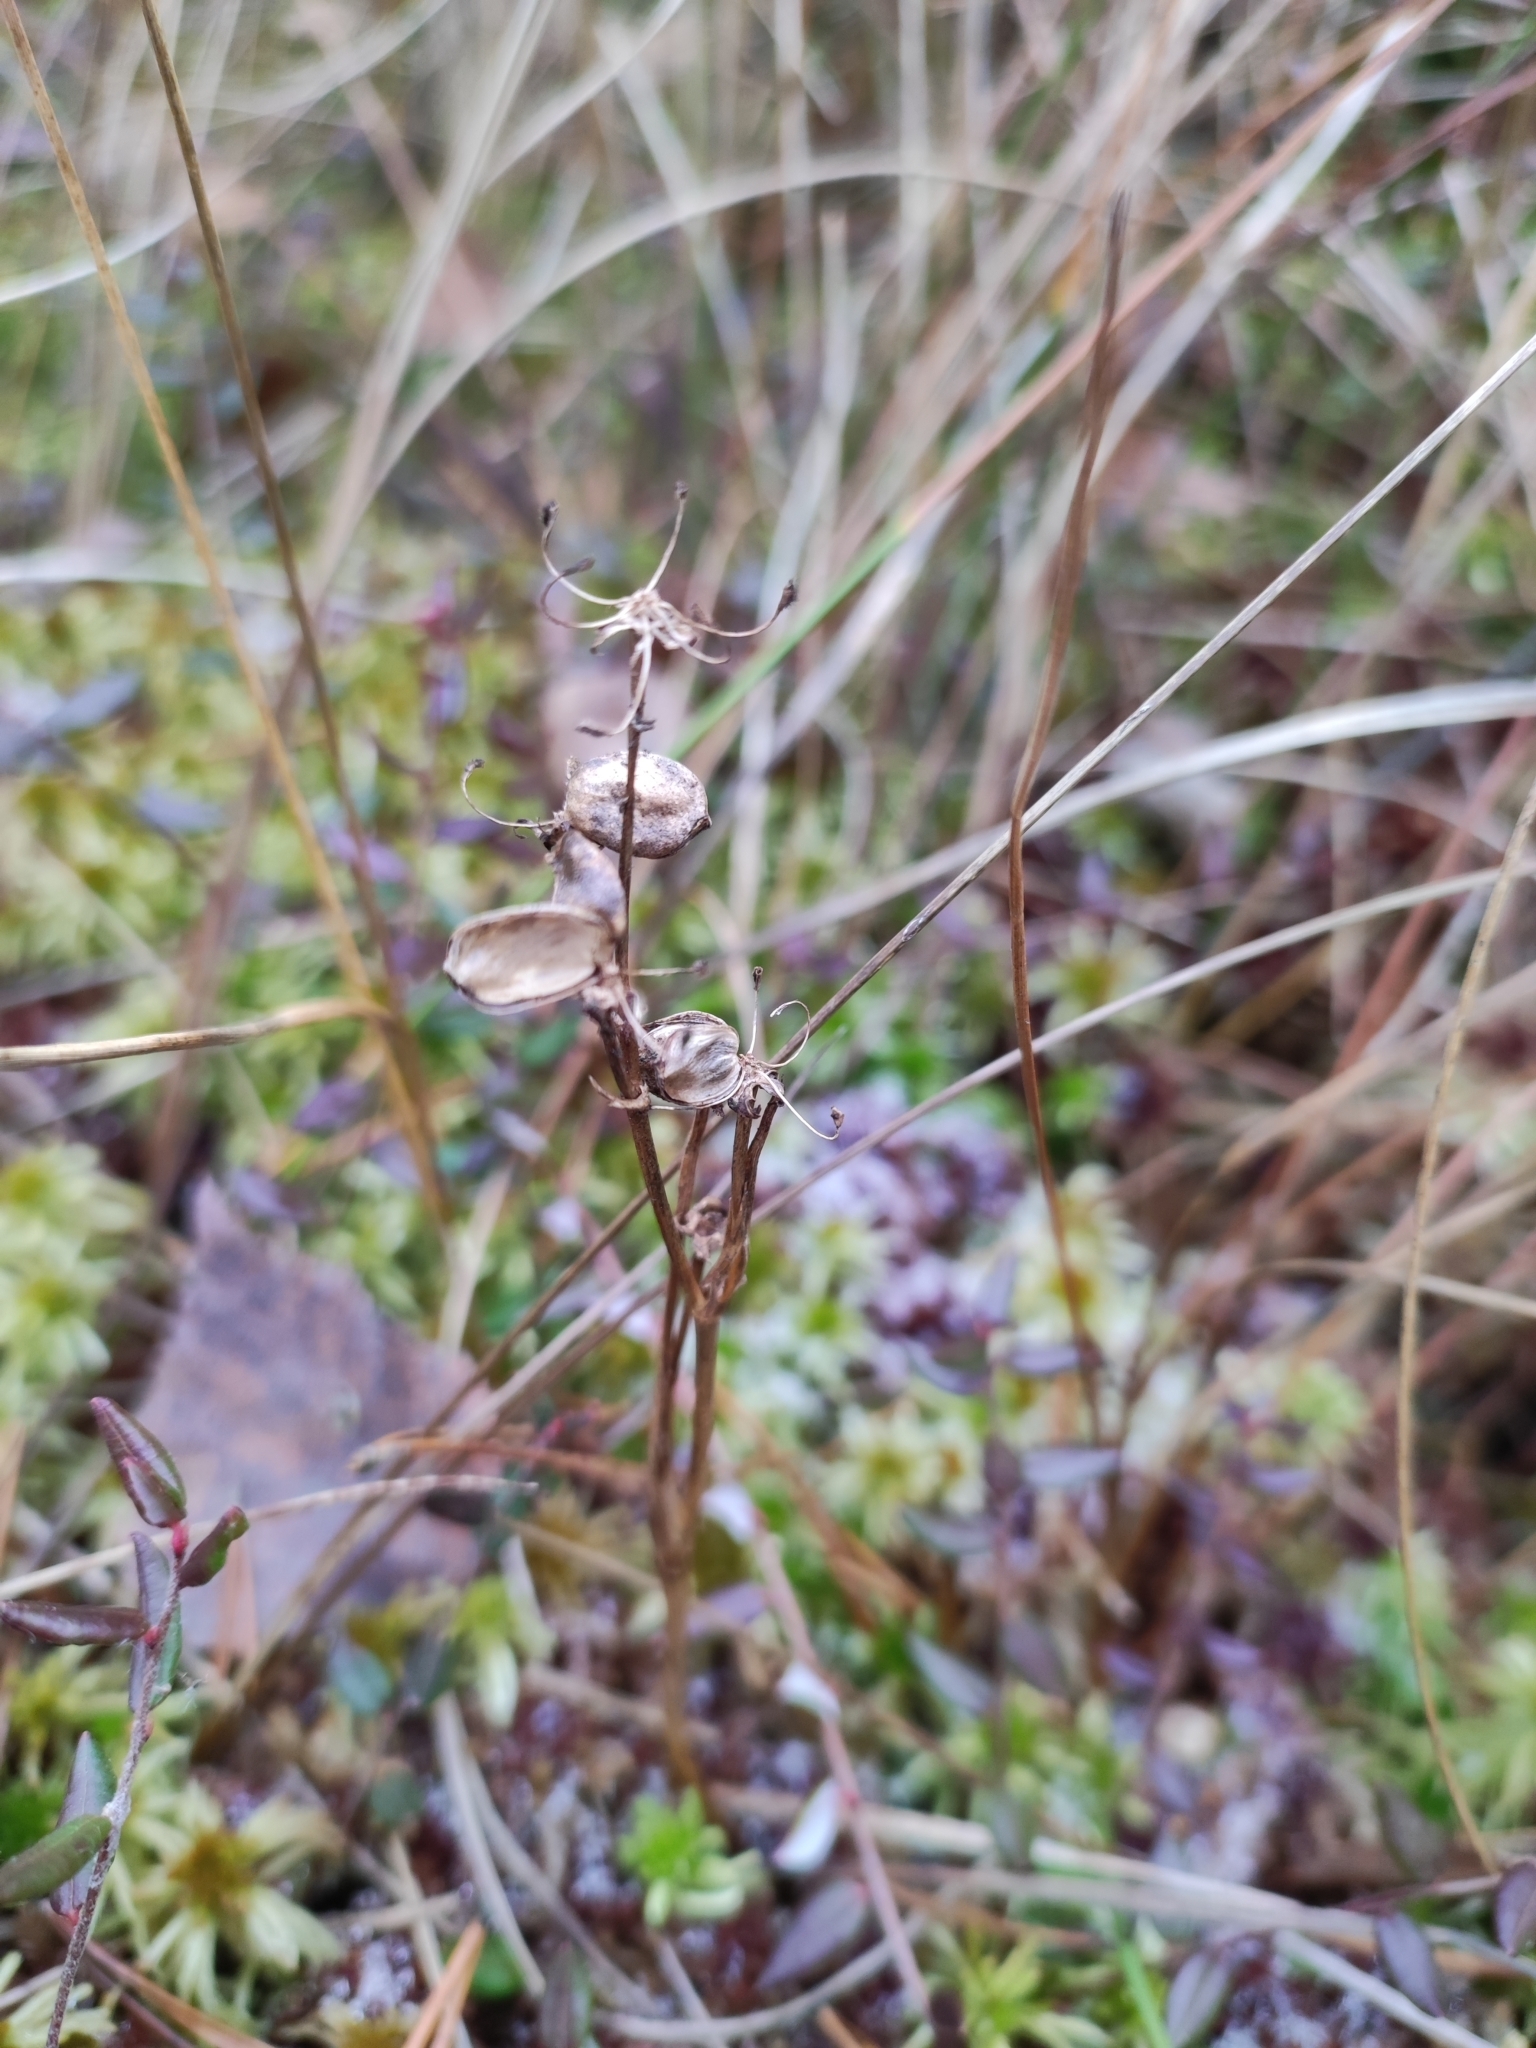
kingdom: Plantae
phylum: Tracheophyta
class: Liliopsida
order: Alismatales
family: Scheuchzeriaceae
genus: Scheuchzeria
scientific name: Scheuchzeria palustris
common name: Rannoch-rush
